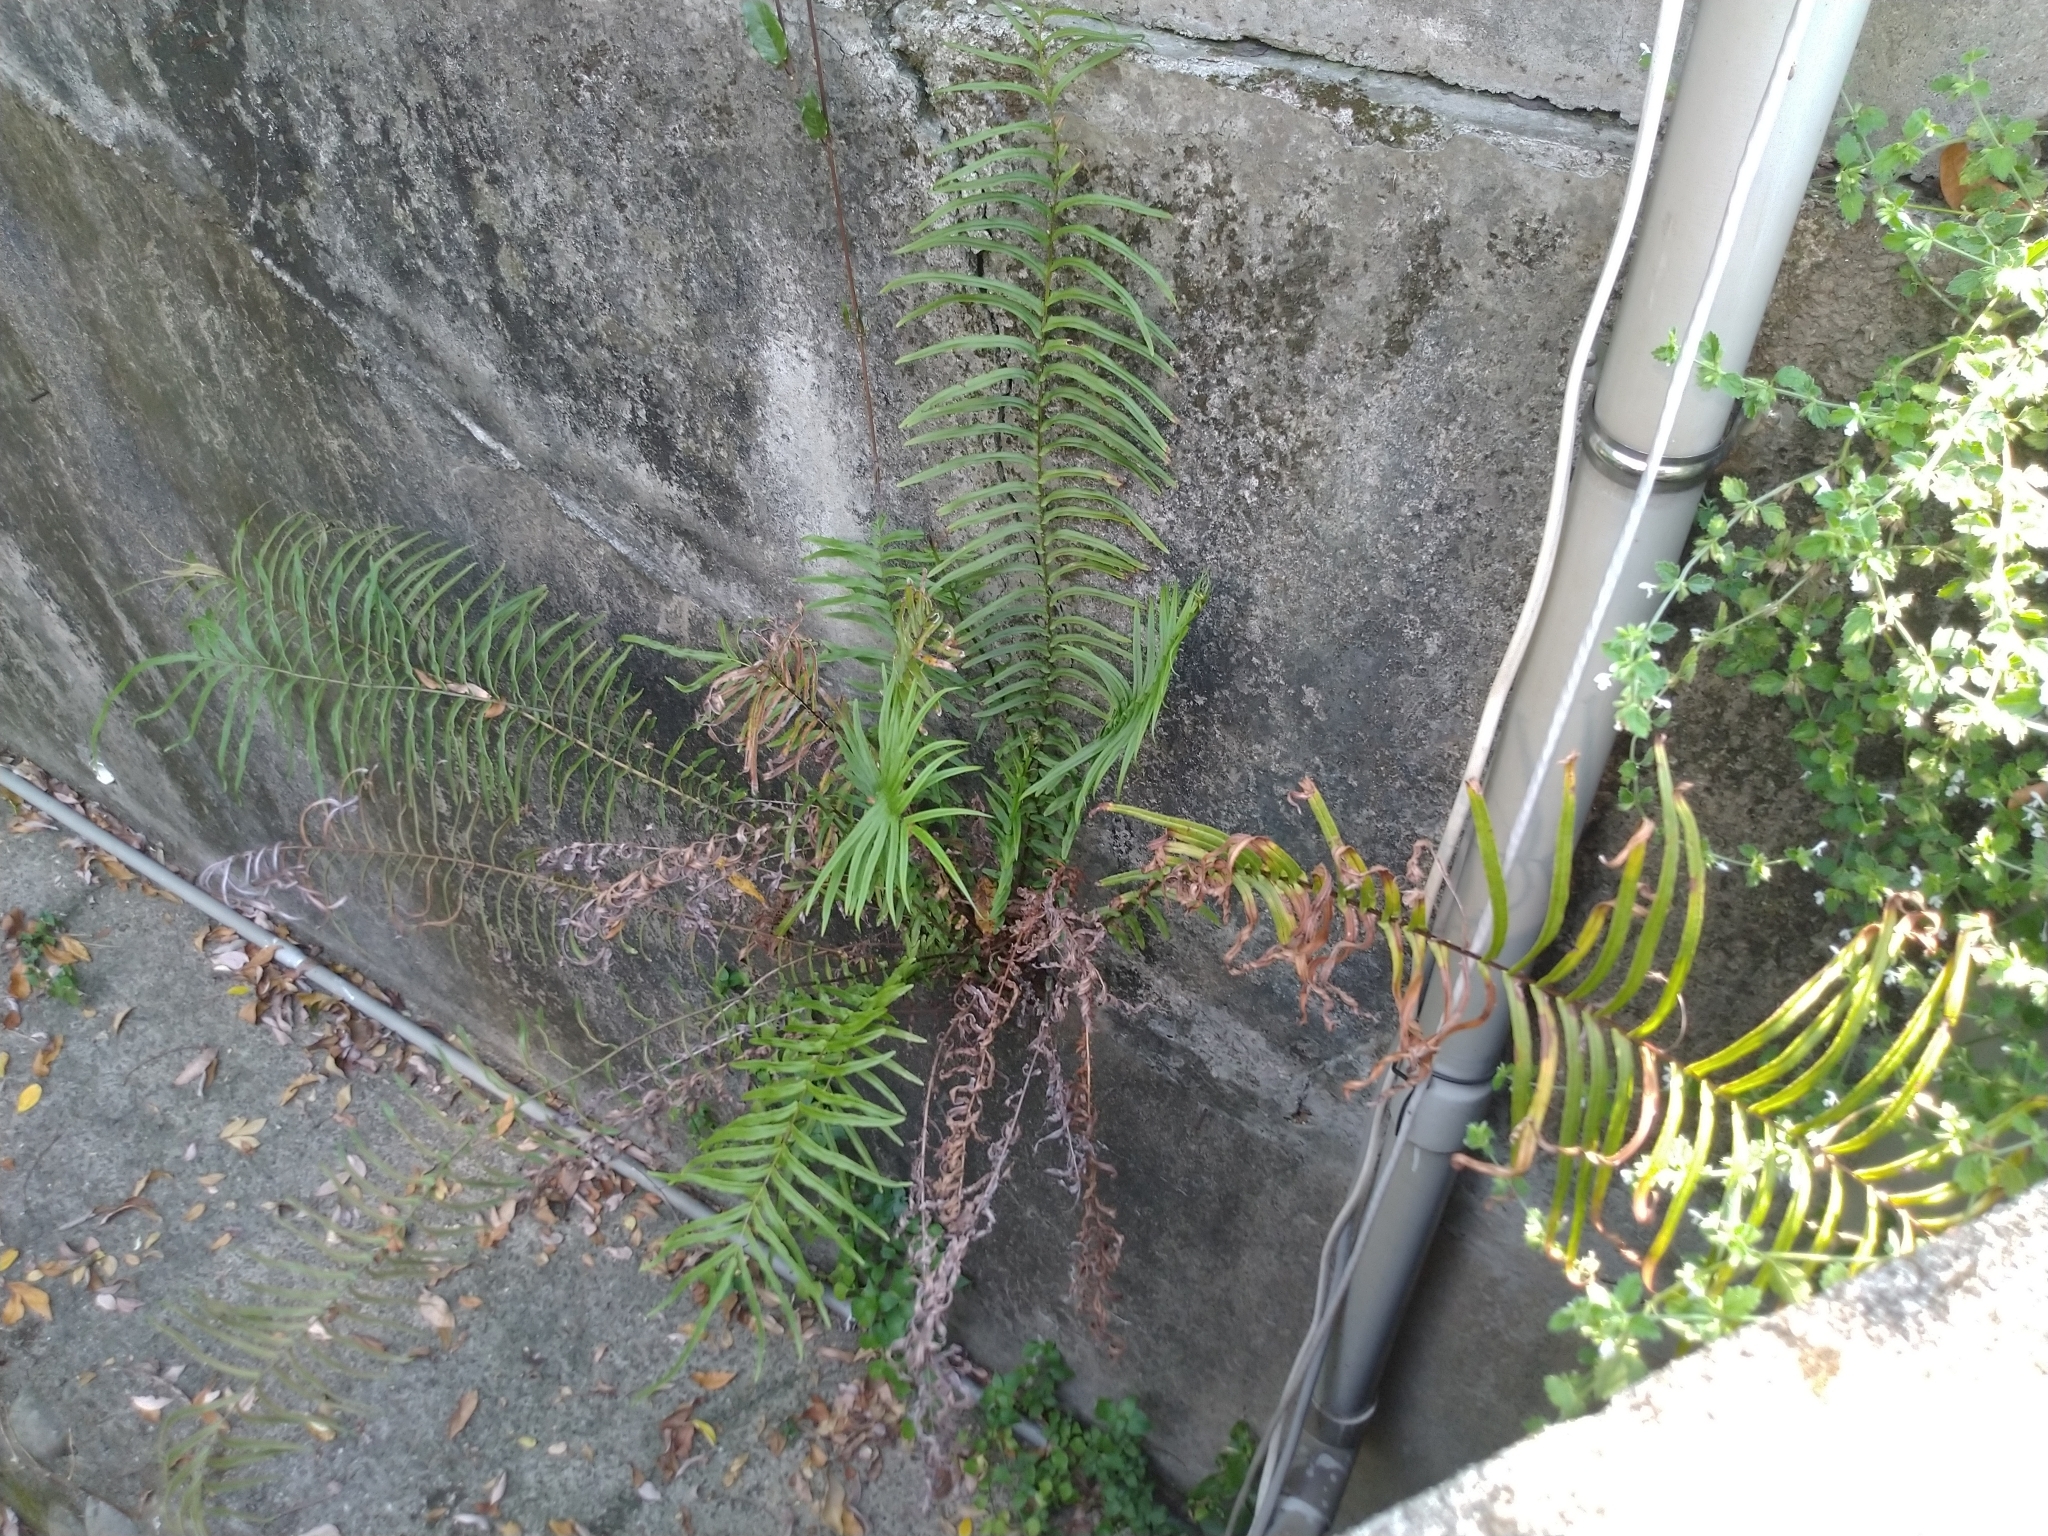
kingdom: Plantae
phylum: Tracheophyta
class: Polypodiopsida
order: Polypodiales
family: Pteridaceae
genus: Pteris
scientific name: Pteris vittata
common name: Ladder brake
